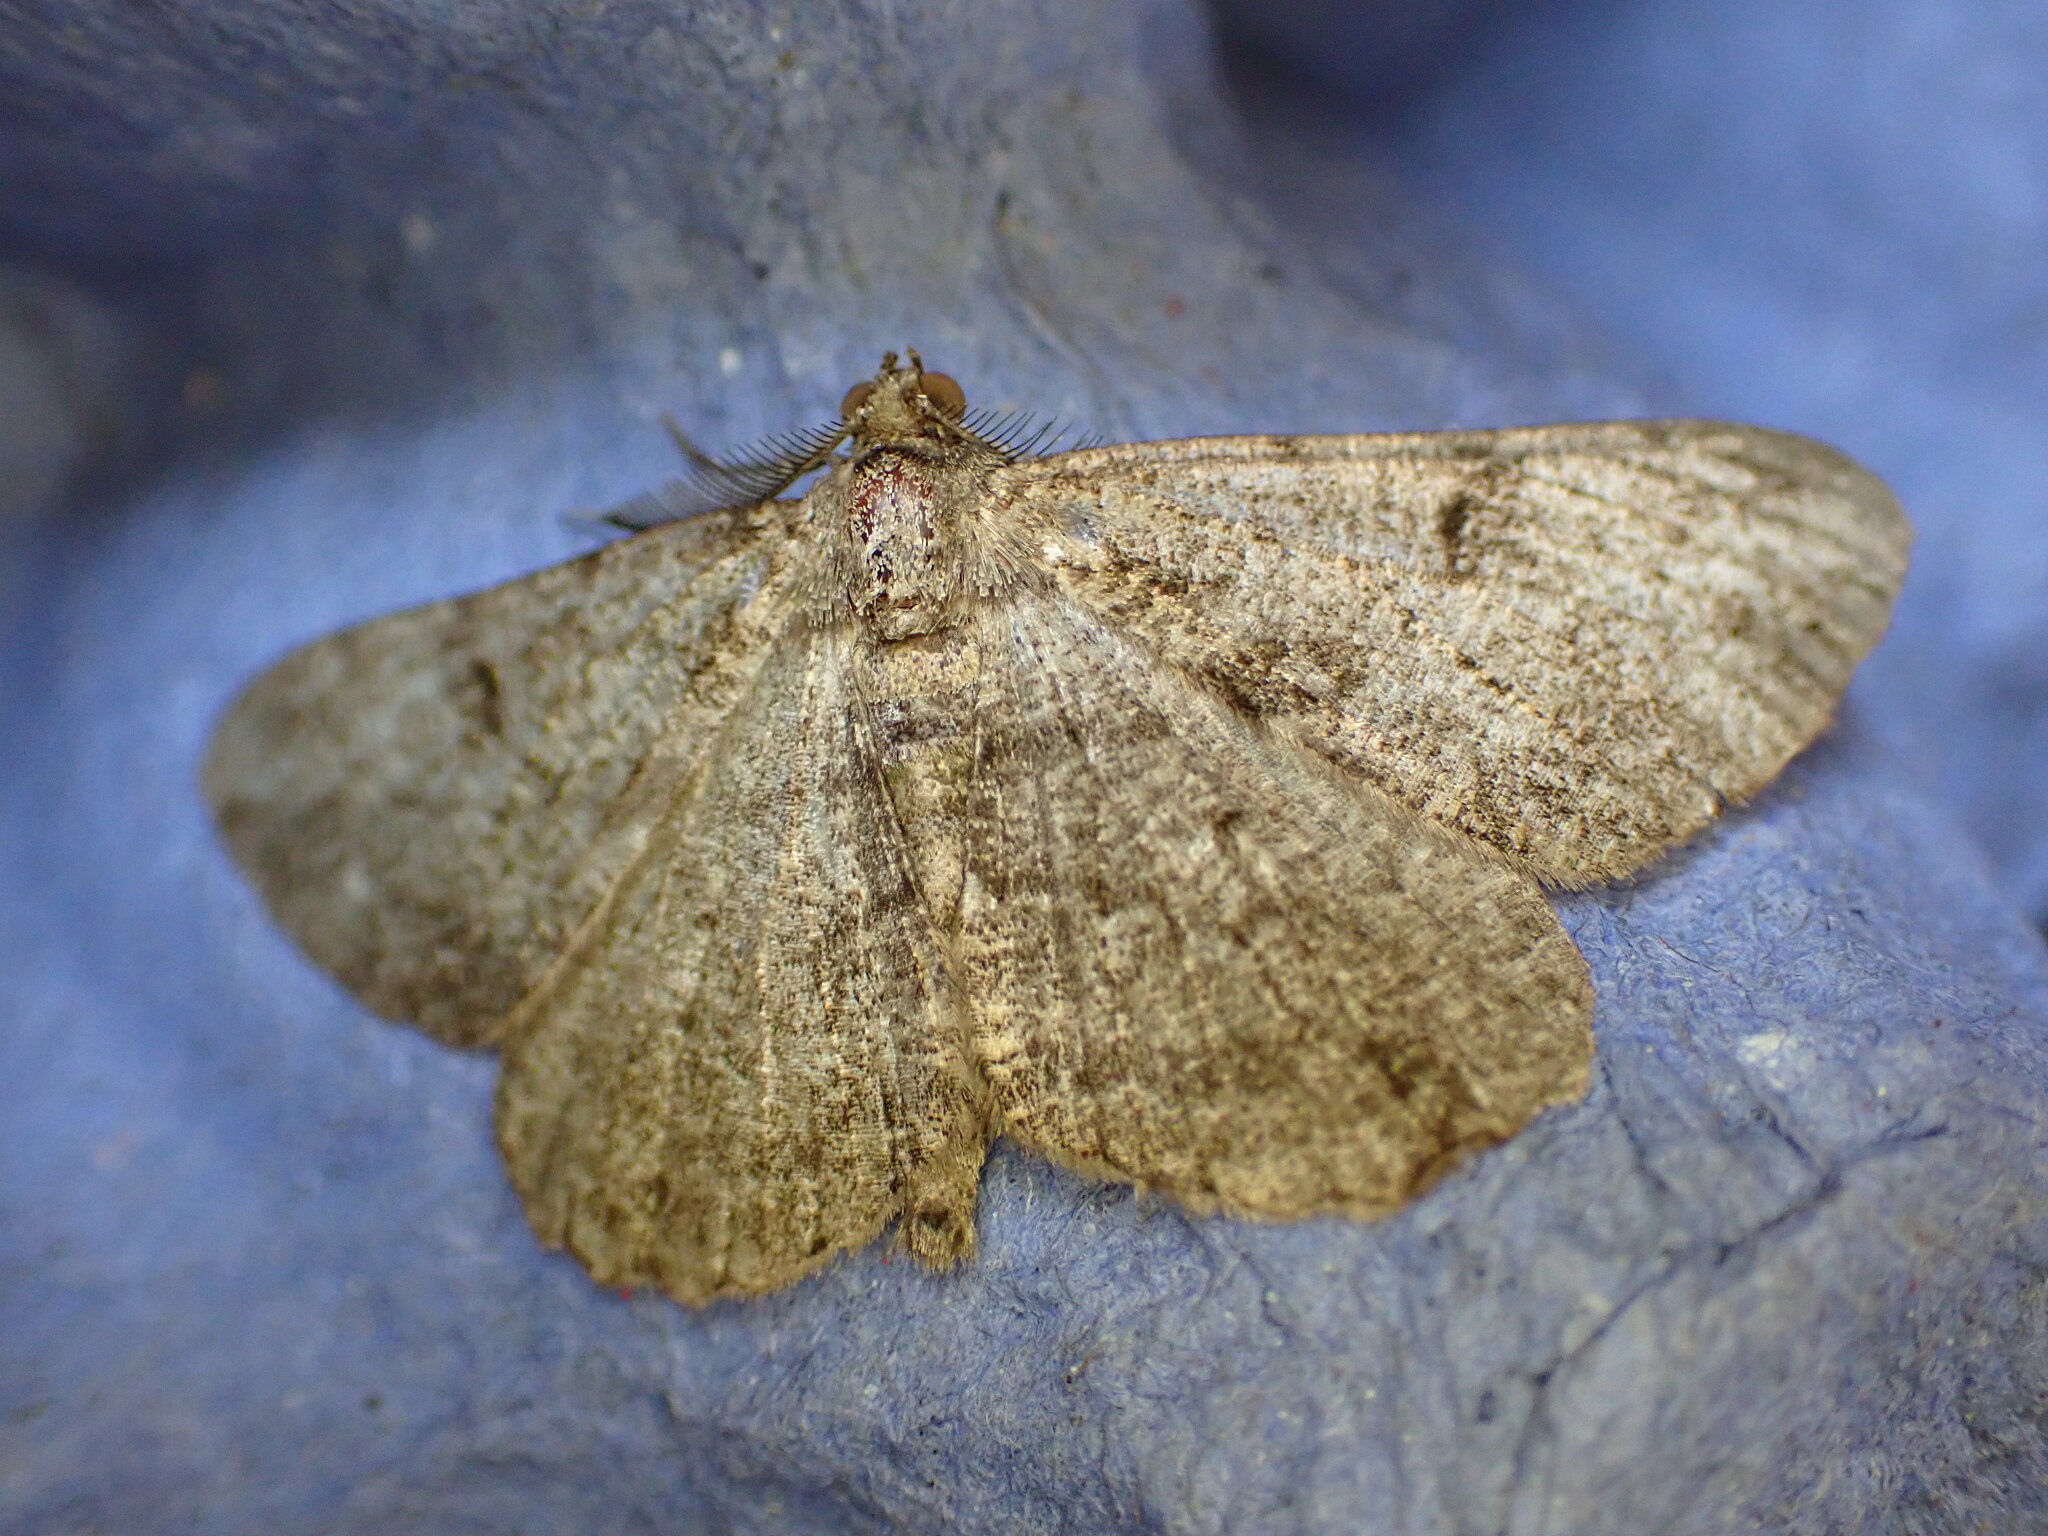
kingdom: Animalia
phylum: Arthropoda
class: Insecta
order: Lepidoptera
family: Geometridae
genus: Peribatodes
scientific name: Peribatodes rhomboidaria
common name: Willow beauty
